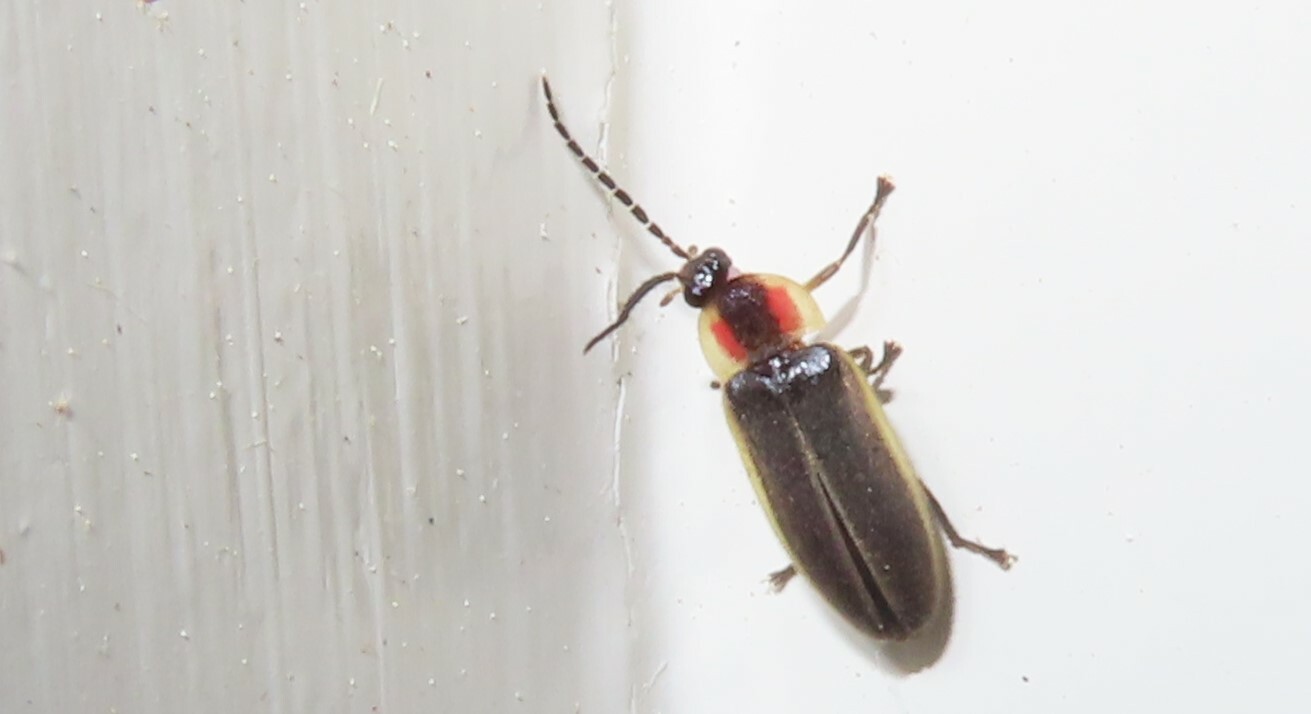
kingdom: Animalia
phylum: Arthropoda
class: Insecta
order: Coleoptera
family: Lampyridae
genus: Photinus
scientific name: Photinus pyralis
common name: Big dipper firefly
